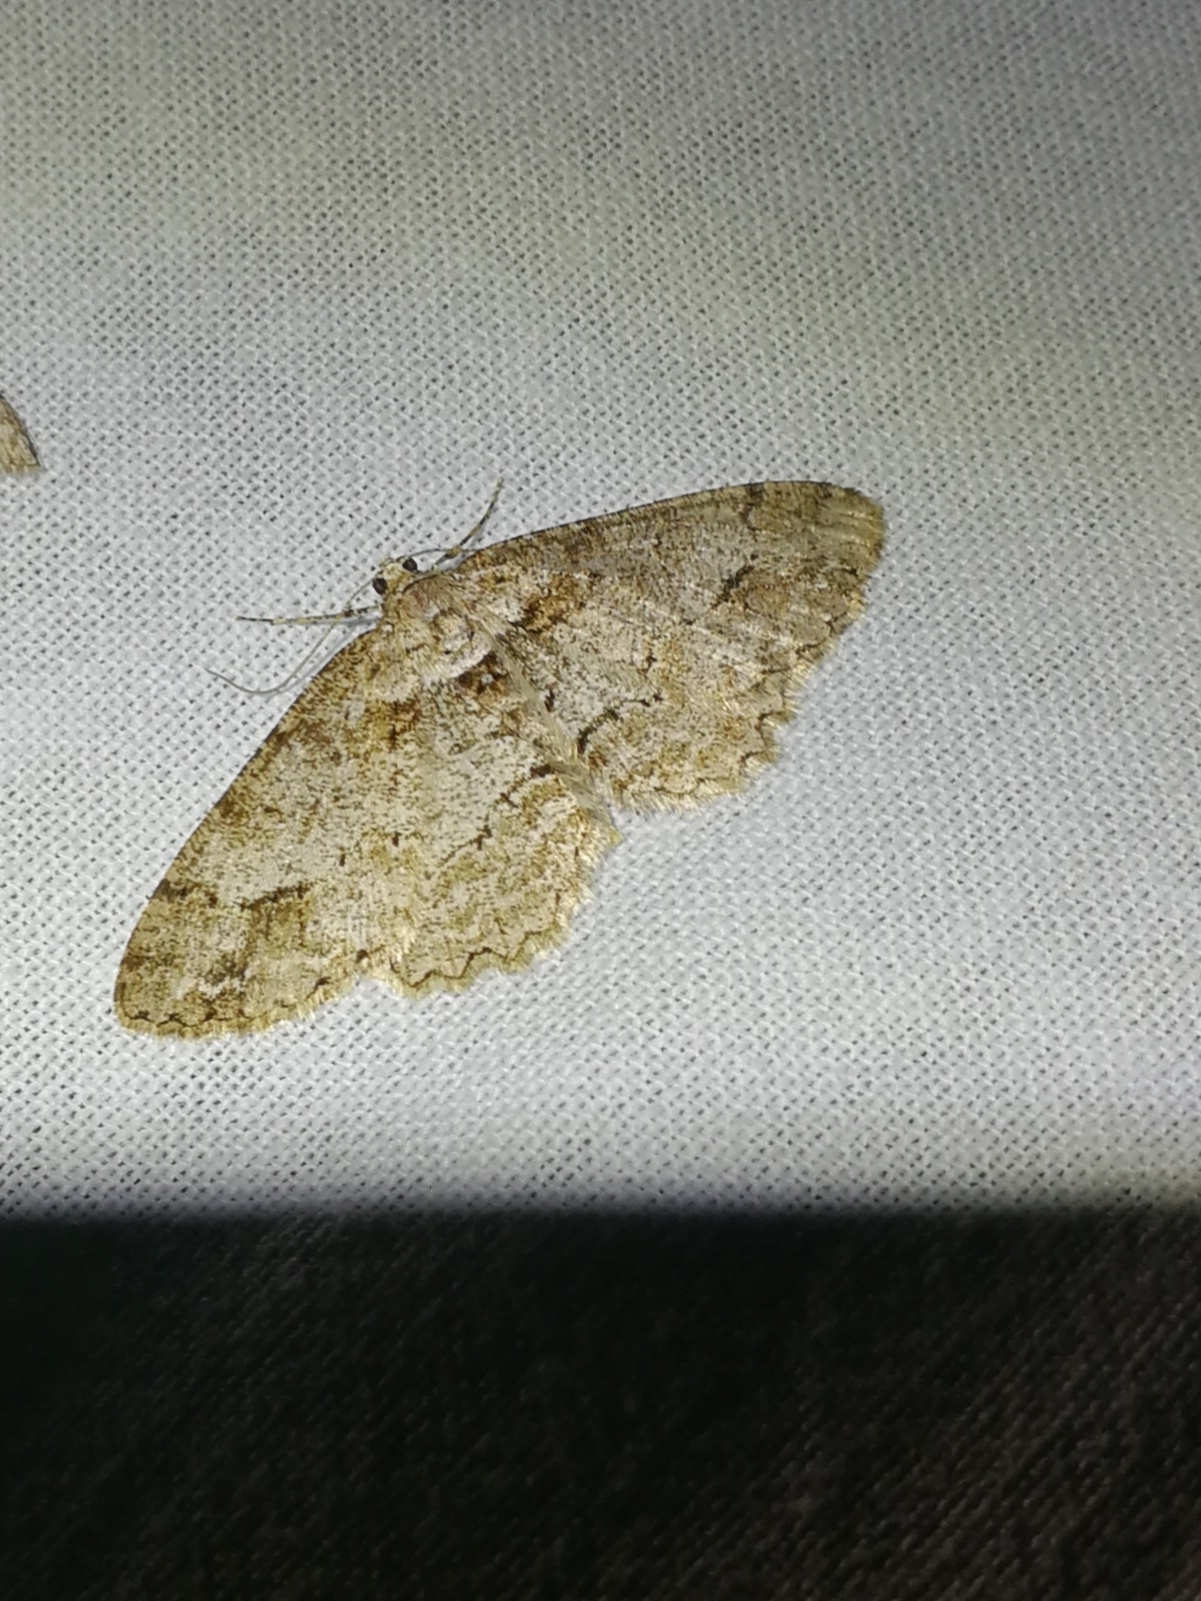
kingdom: Animalia
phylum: Arthropoda
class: Insecta
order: Lepidoptera
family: Geometridae
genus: Paradarisa
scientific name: Paradarisa consonaria
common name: Square spot
